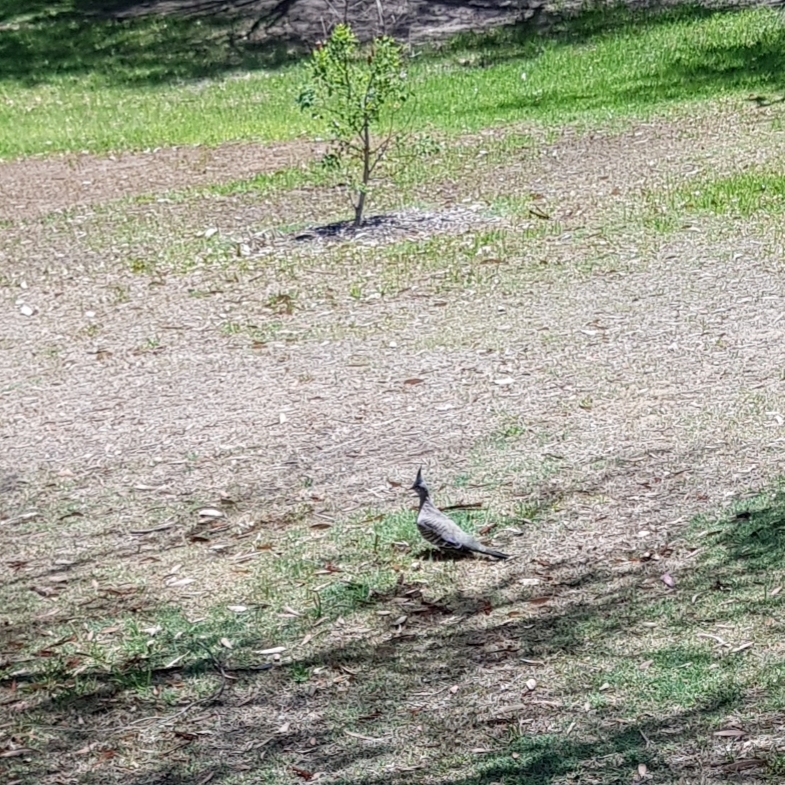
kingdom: Animalia
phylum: Chordata
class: Aves
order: Columbiformes
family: Columbidae
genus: Ocyphaps
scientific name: Ocyphaps lophotes
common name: Crested pigeon
